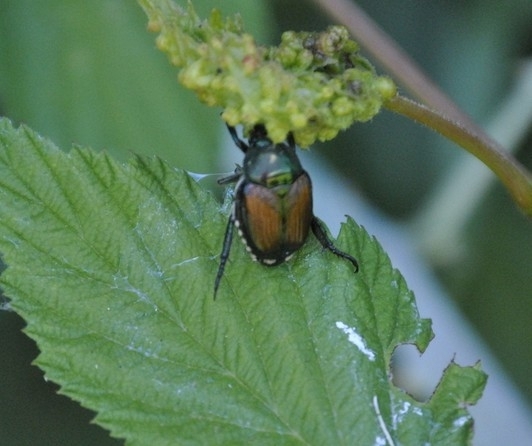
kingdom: Animalia
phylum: Arthropoda
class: Insecta
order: Coleoptera
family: Scarabaeidae
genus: Popillia
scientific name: Popillia japonica
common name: Japanese beetle
